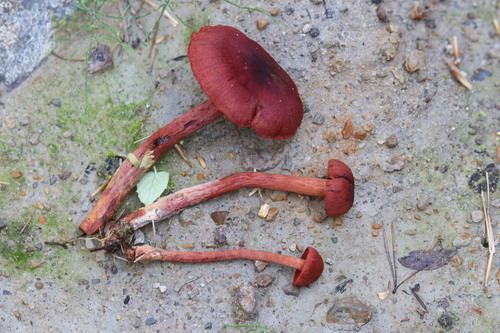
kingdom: Fungi
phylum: Basidiomycota
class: Agaricomycetes
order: Agaricales
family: Cortinariaceae
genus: Cortinarius
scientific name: Cortinarius sanguineus
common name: Bloodred webcap
